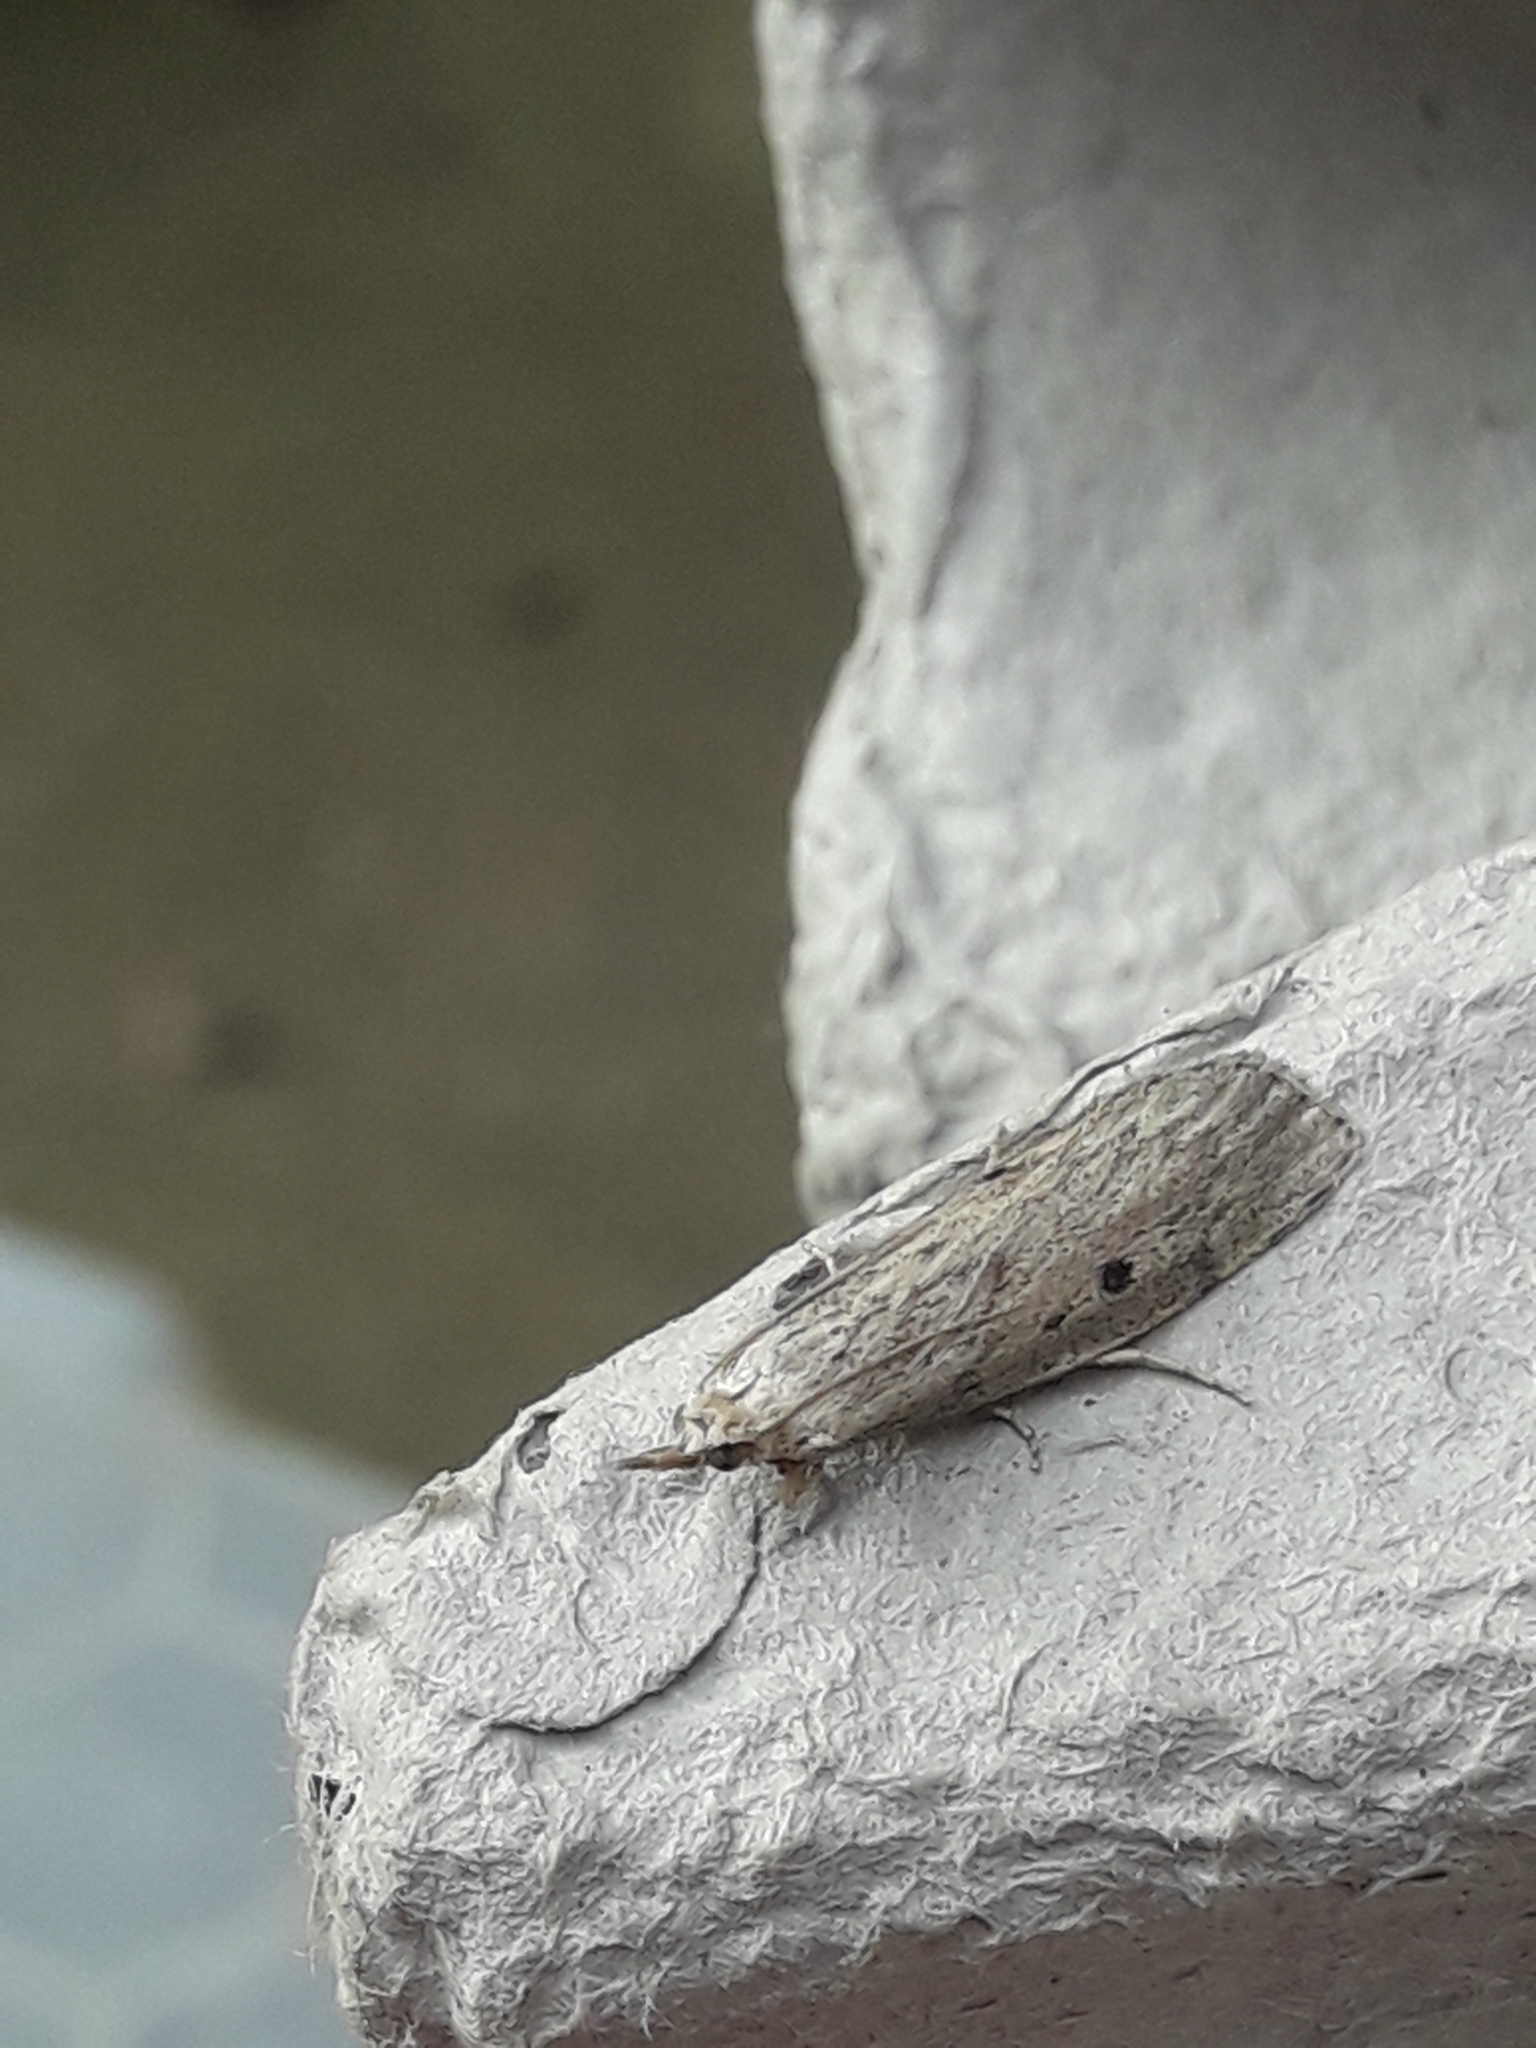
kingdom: Animalia
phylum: Arthropoda
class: Insecta
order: Lepidoptera
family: Pyralidae
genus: Aphomia
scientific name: Aphomia sociella
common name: Bee moth
